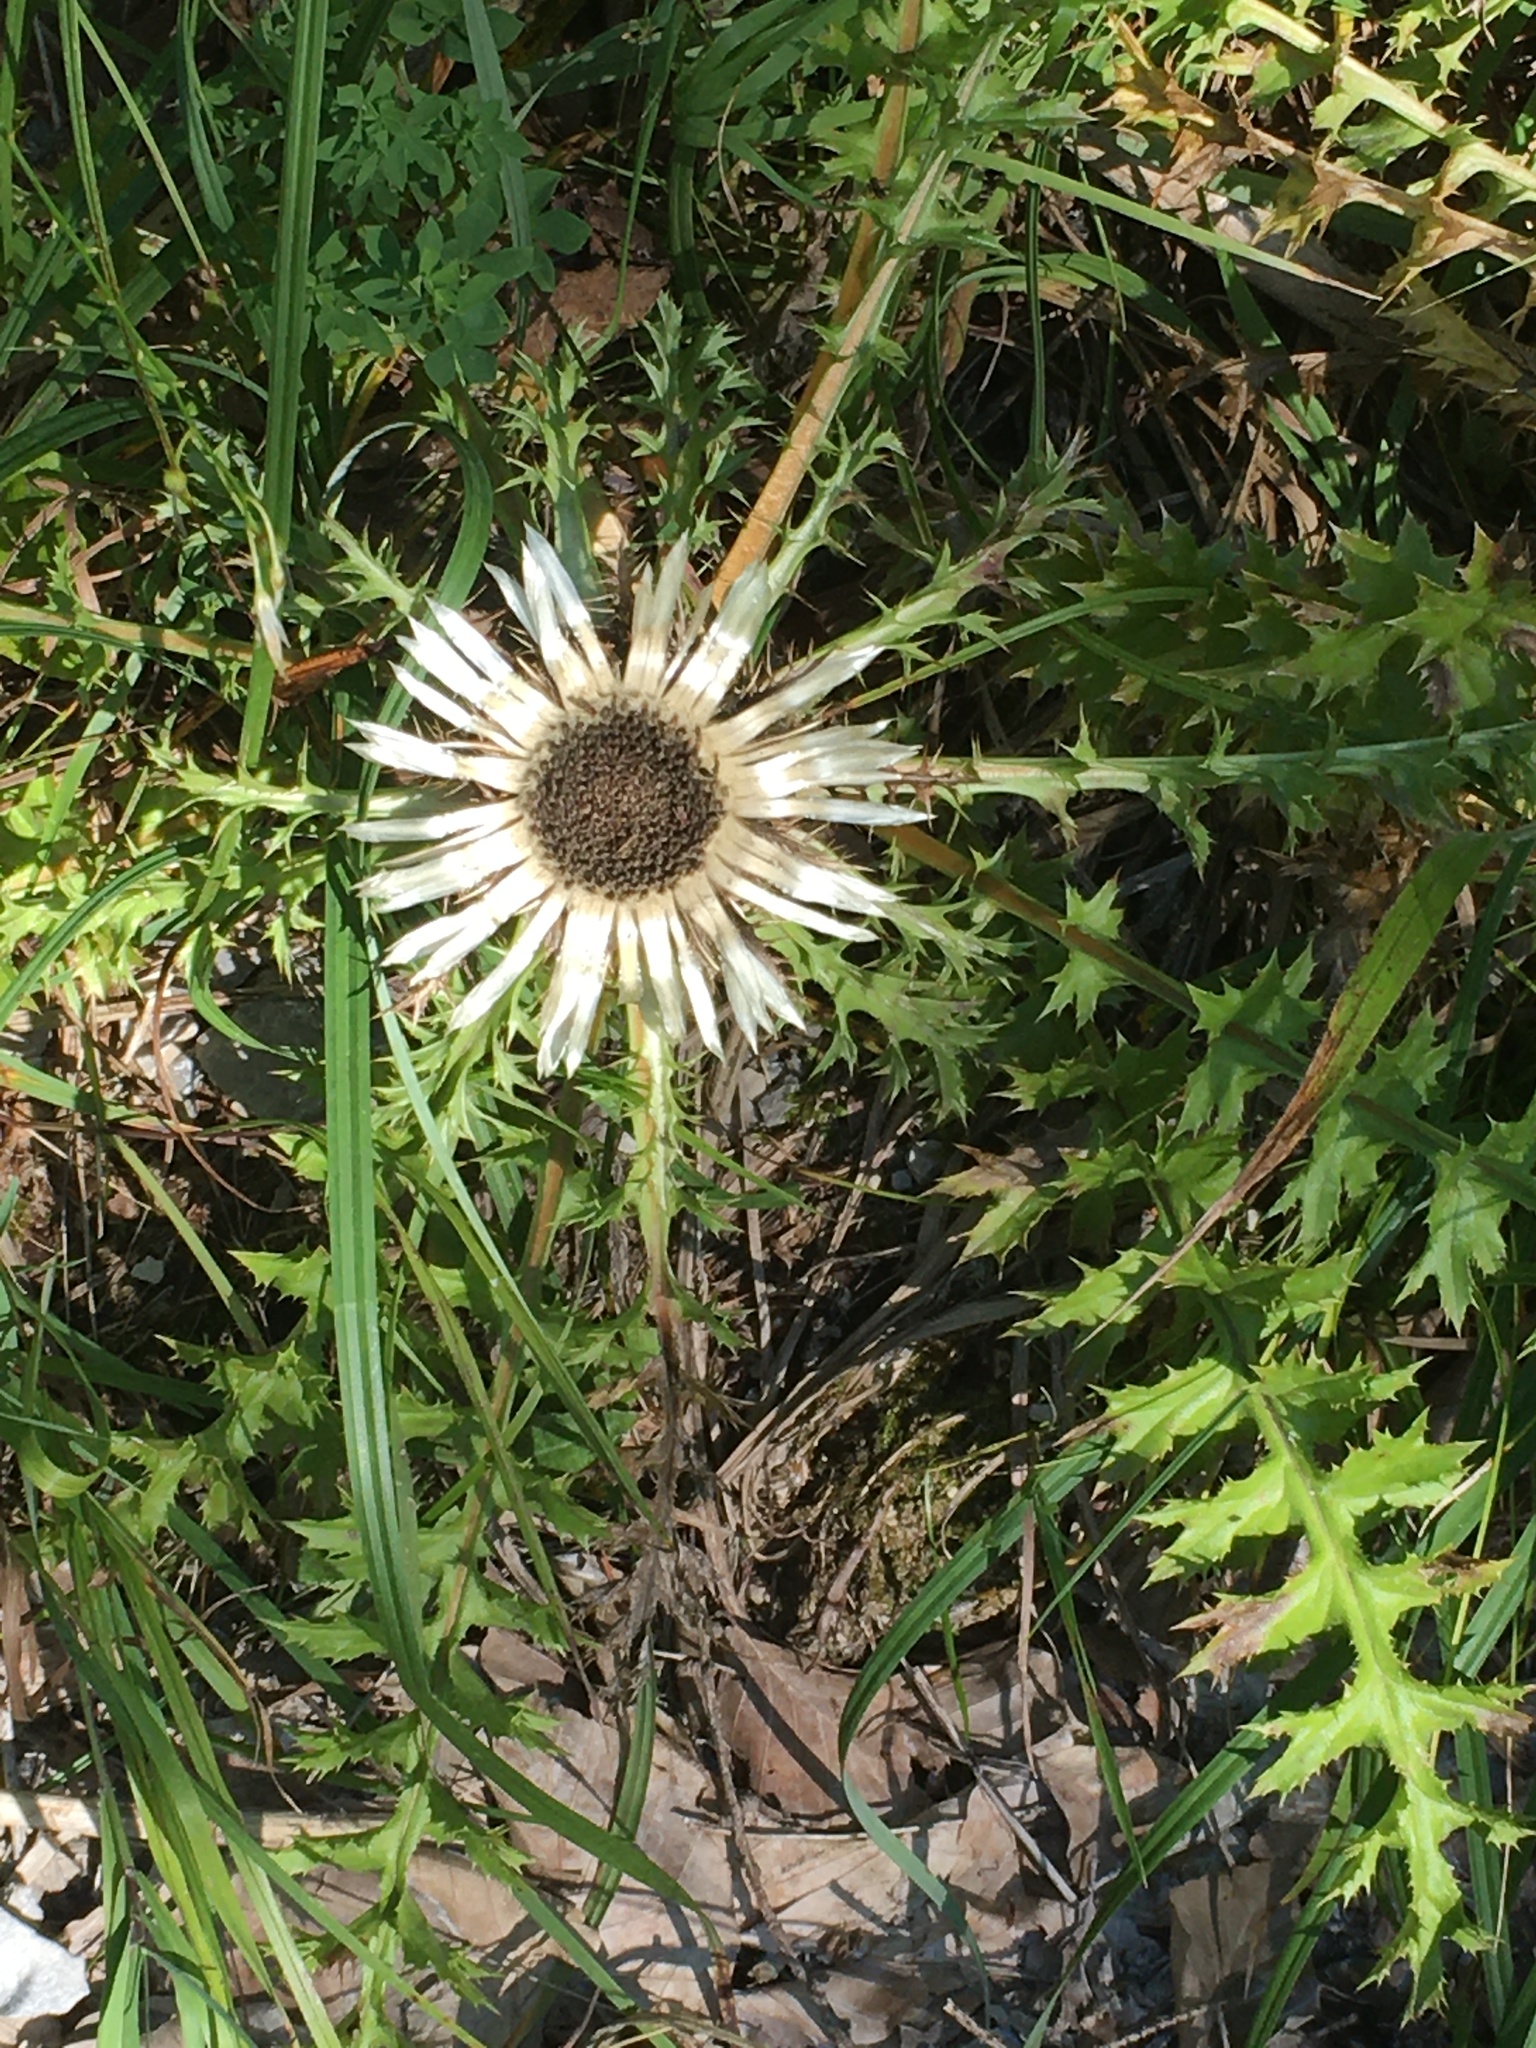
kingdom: Plantae
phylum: Tracheophyta
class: Magnoliopsida
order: Asterales
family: Asteraceae
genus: Carlina
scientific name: Carlina acaulis
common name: Stemless carline thistle
